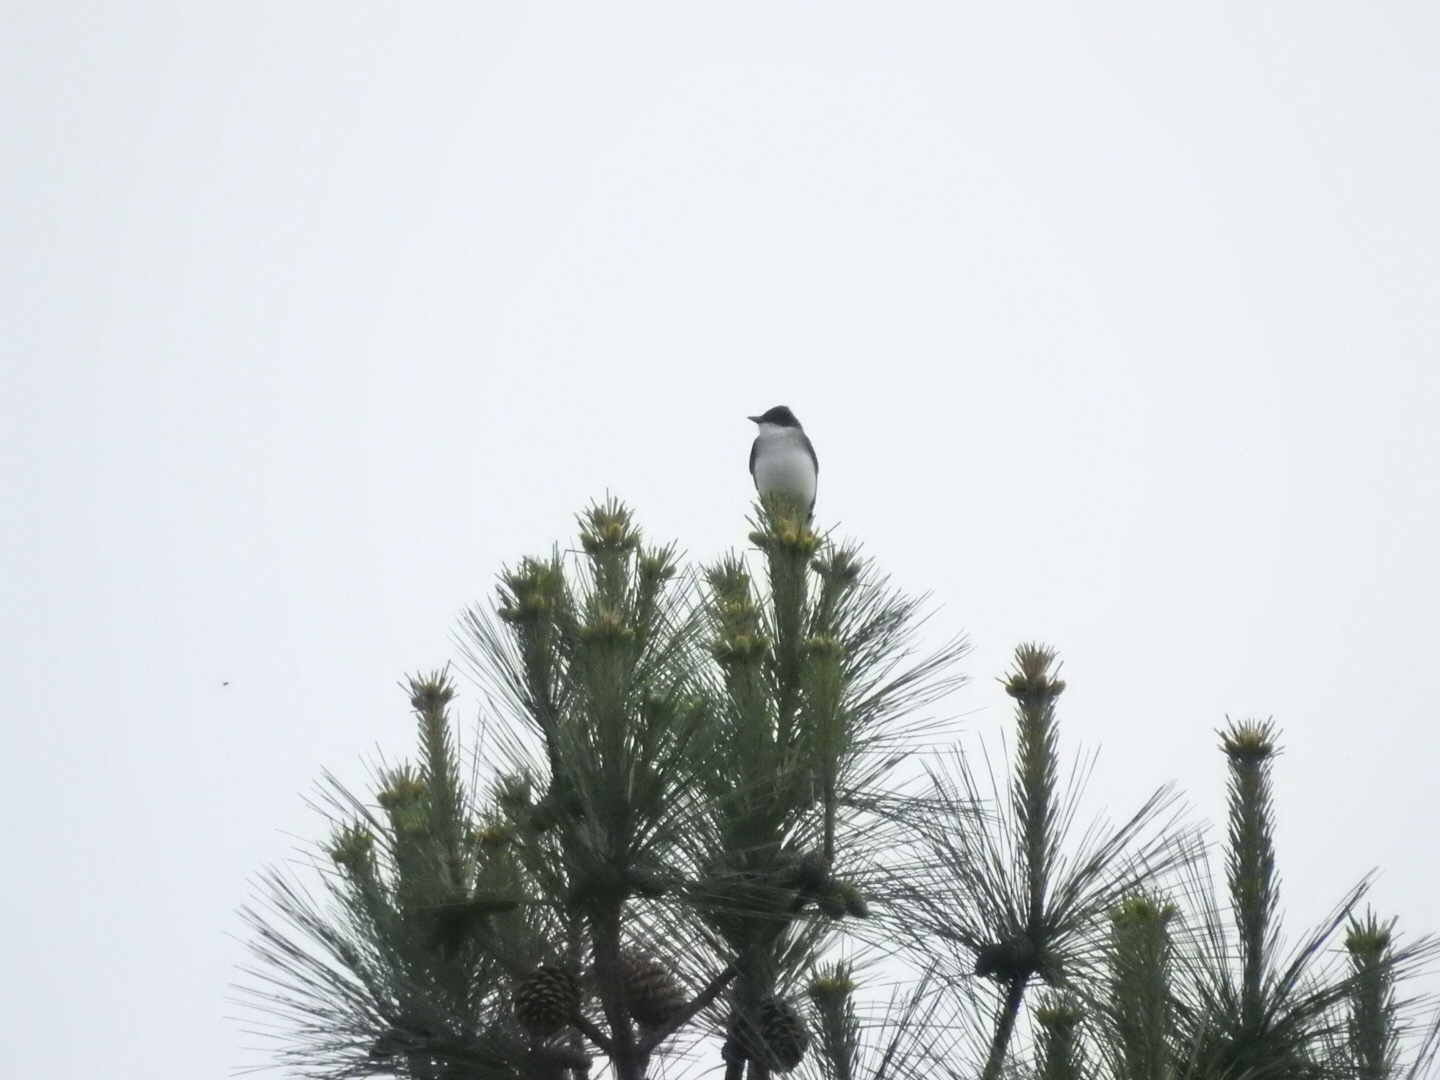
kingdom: Animalia
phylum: Chordata
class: Aves
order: Passeriformes
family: Tyrannidae
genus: Tyrannus
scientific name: Tyrannus tyrannus
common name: Eastern kingbird
